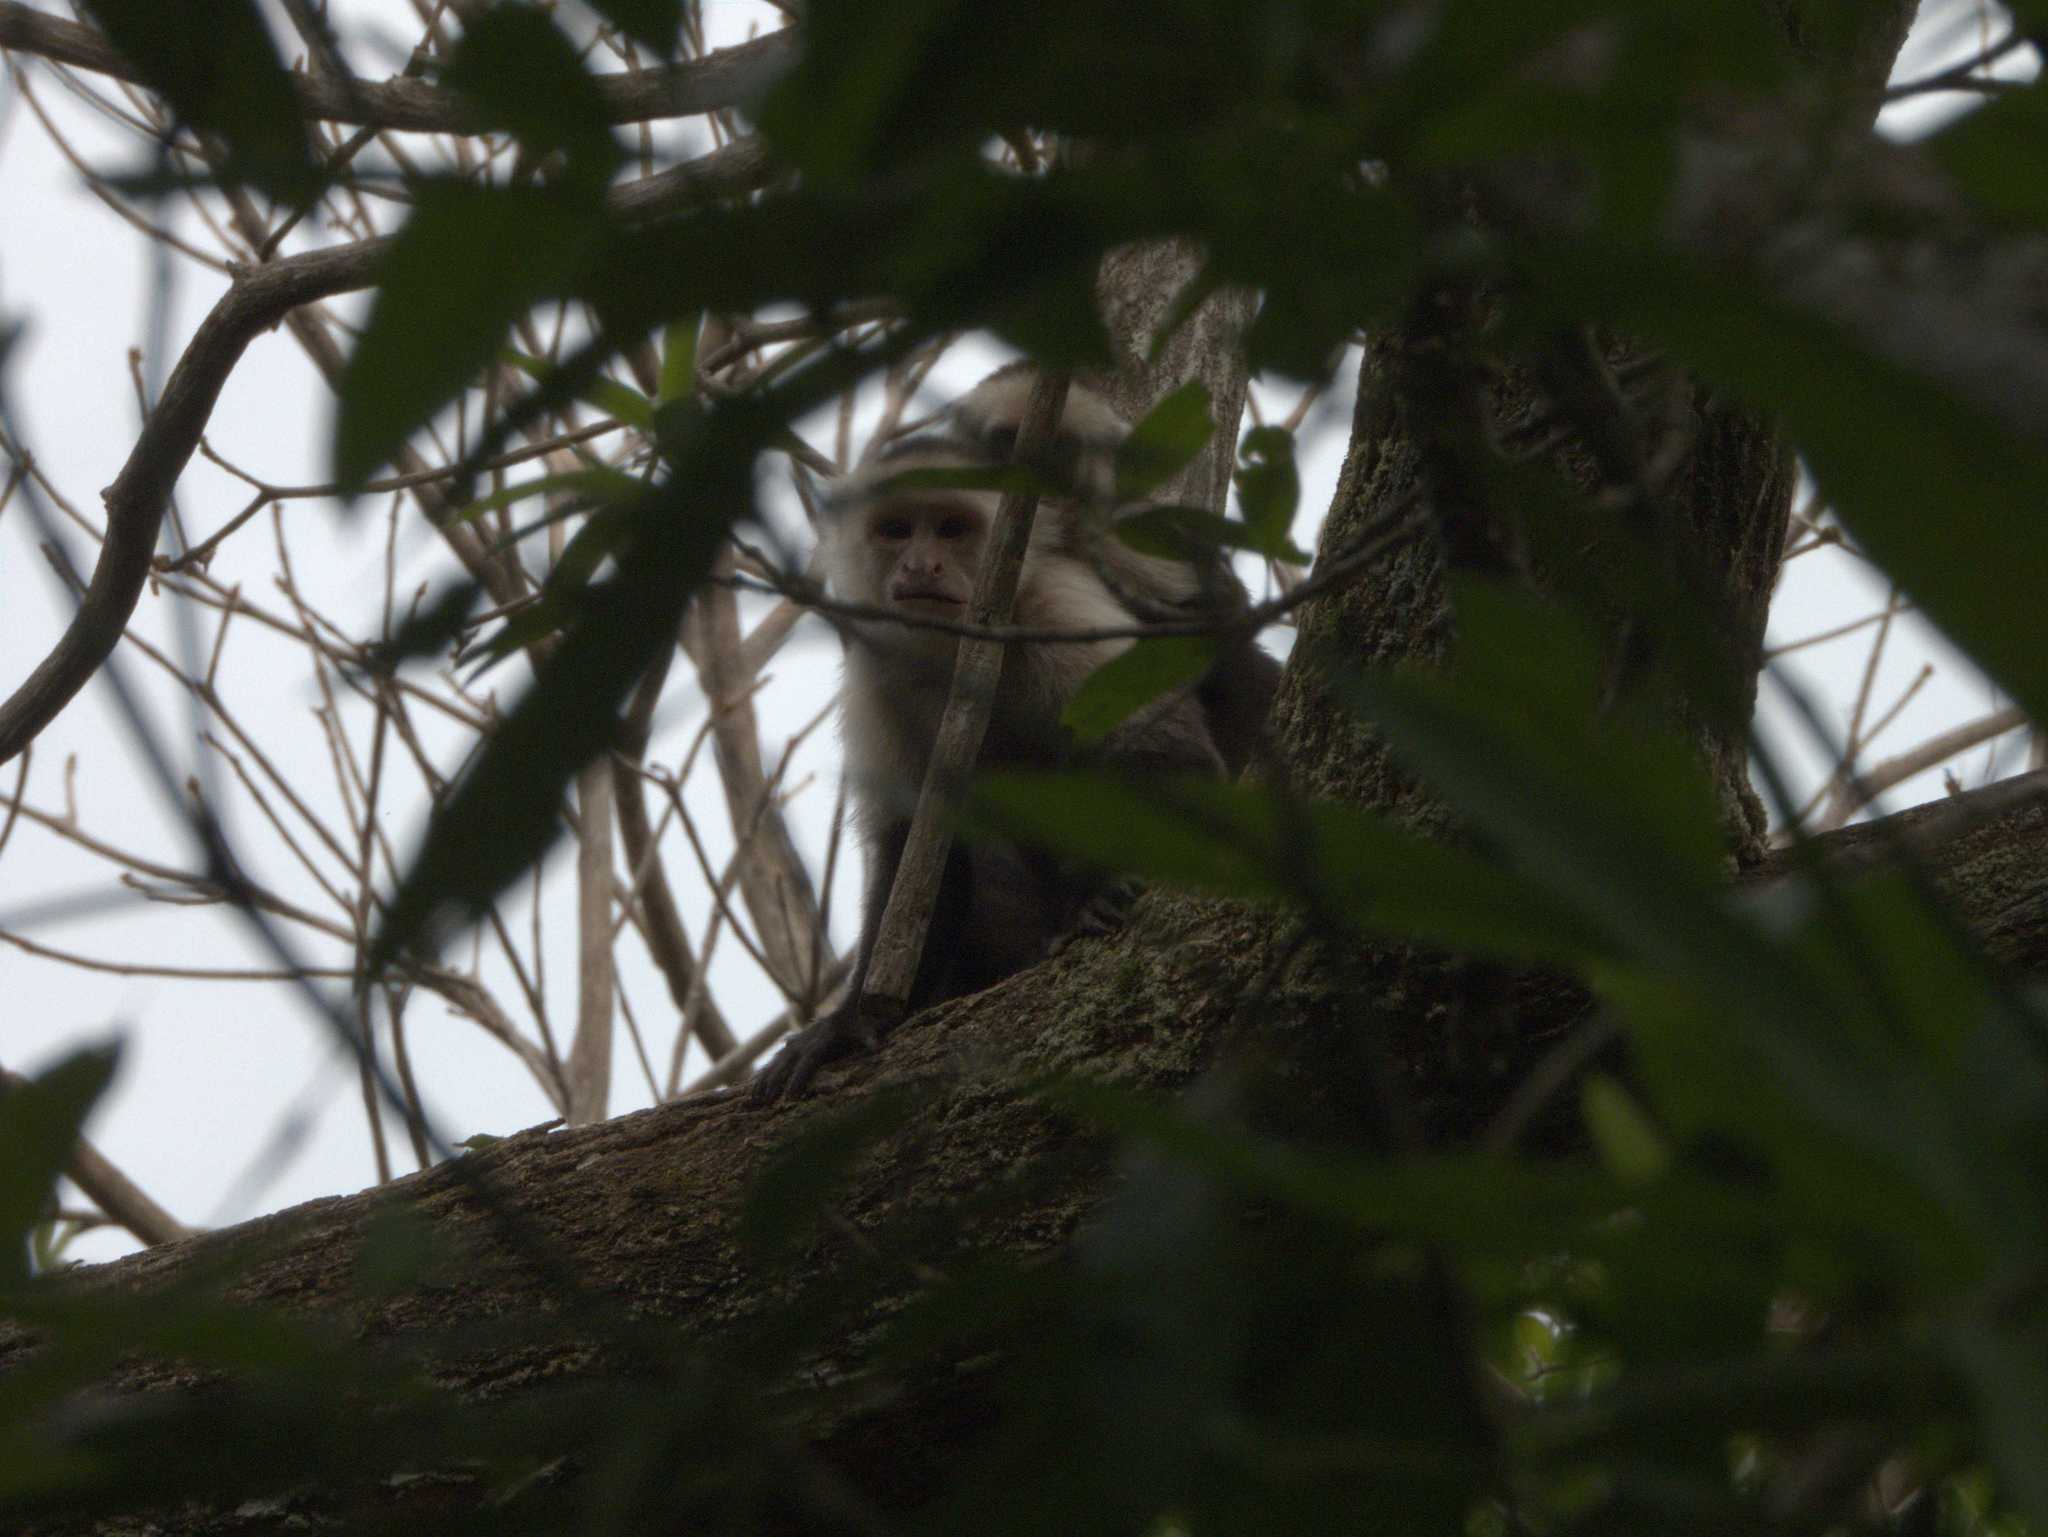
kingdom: Animalia
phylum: Chordata
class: Mammalia
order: Primates
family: Cebidae
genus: Cebus
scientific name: Cebus imitator
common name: Panamanian white-faced capuchin
